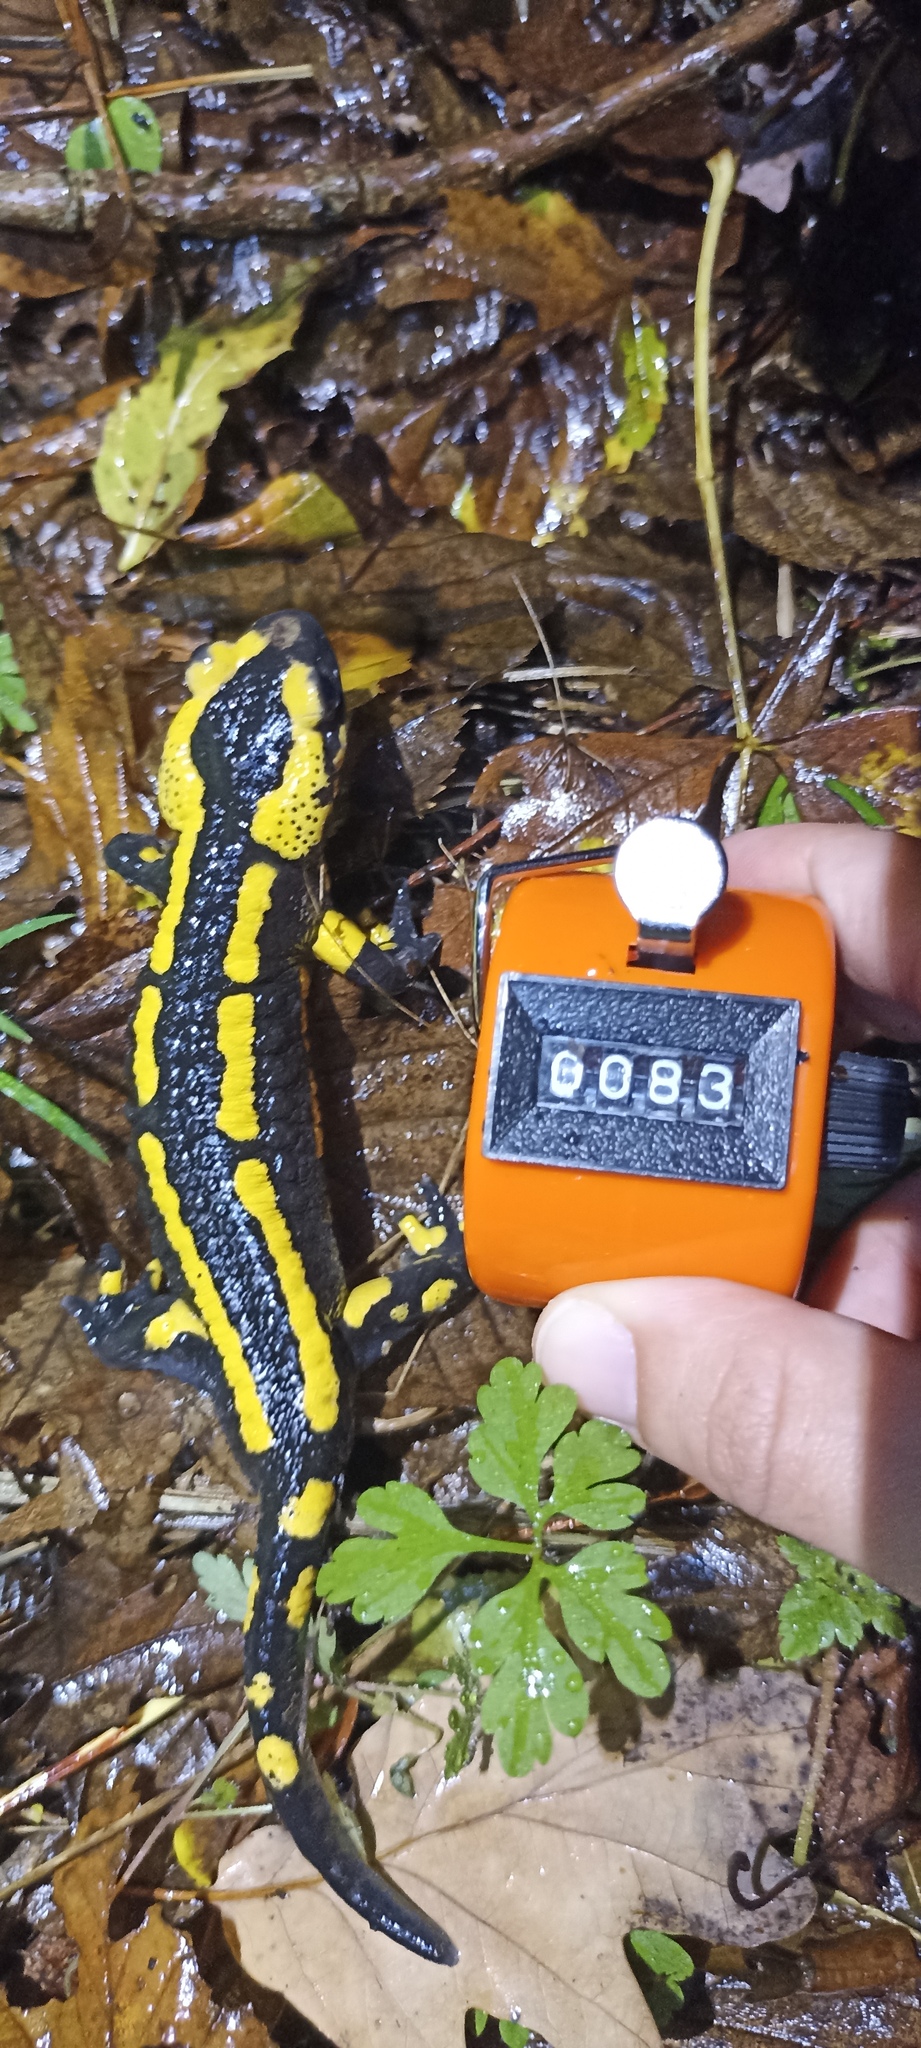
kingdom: Animalia
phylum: Chordata
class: Amphibia
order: Caudata
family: Salamandridae
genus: Salamandra
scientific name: Salamandra salamandra
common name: Fire salamander
